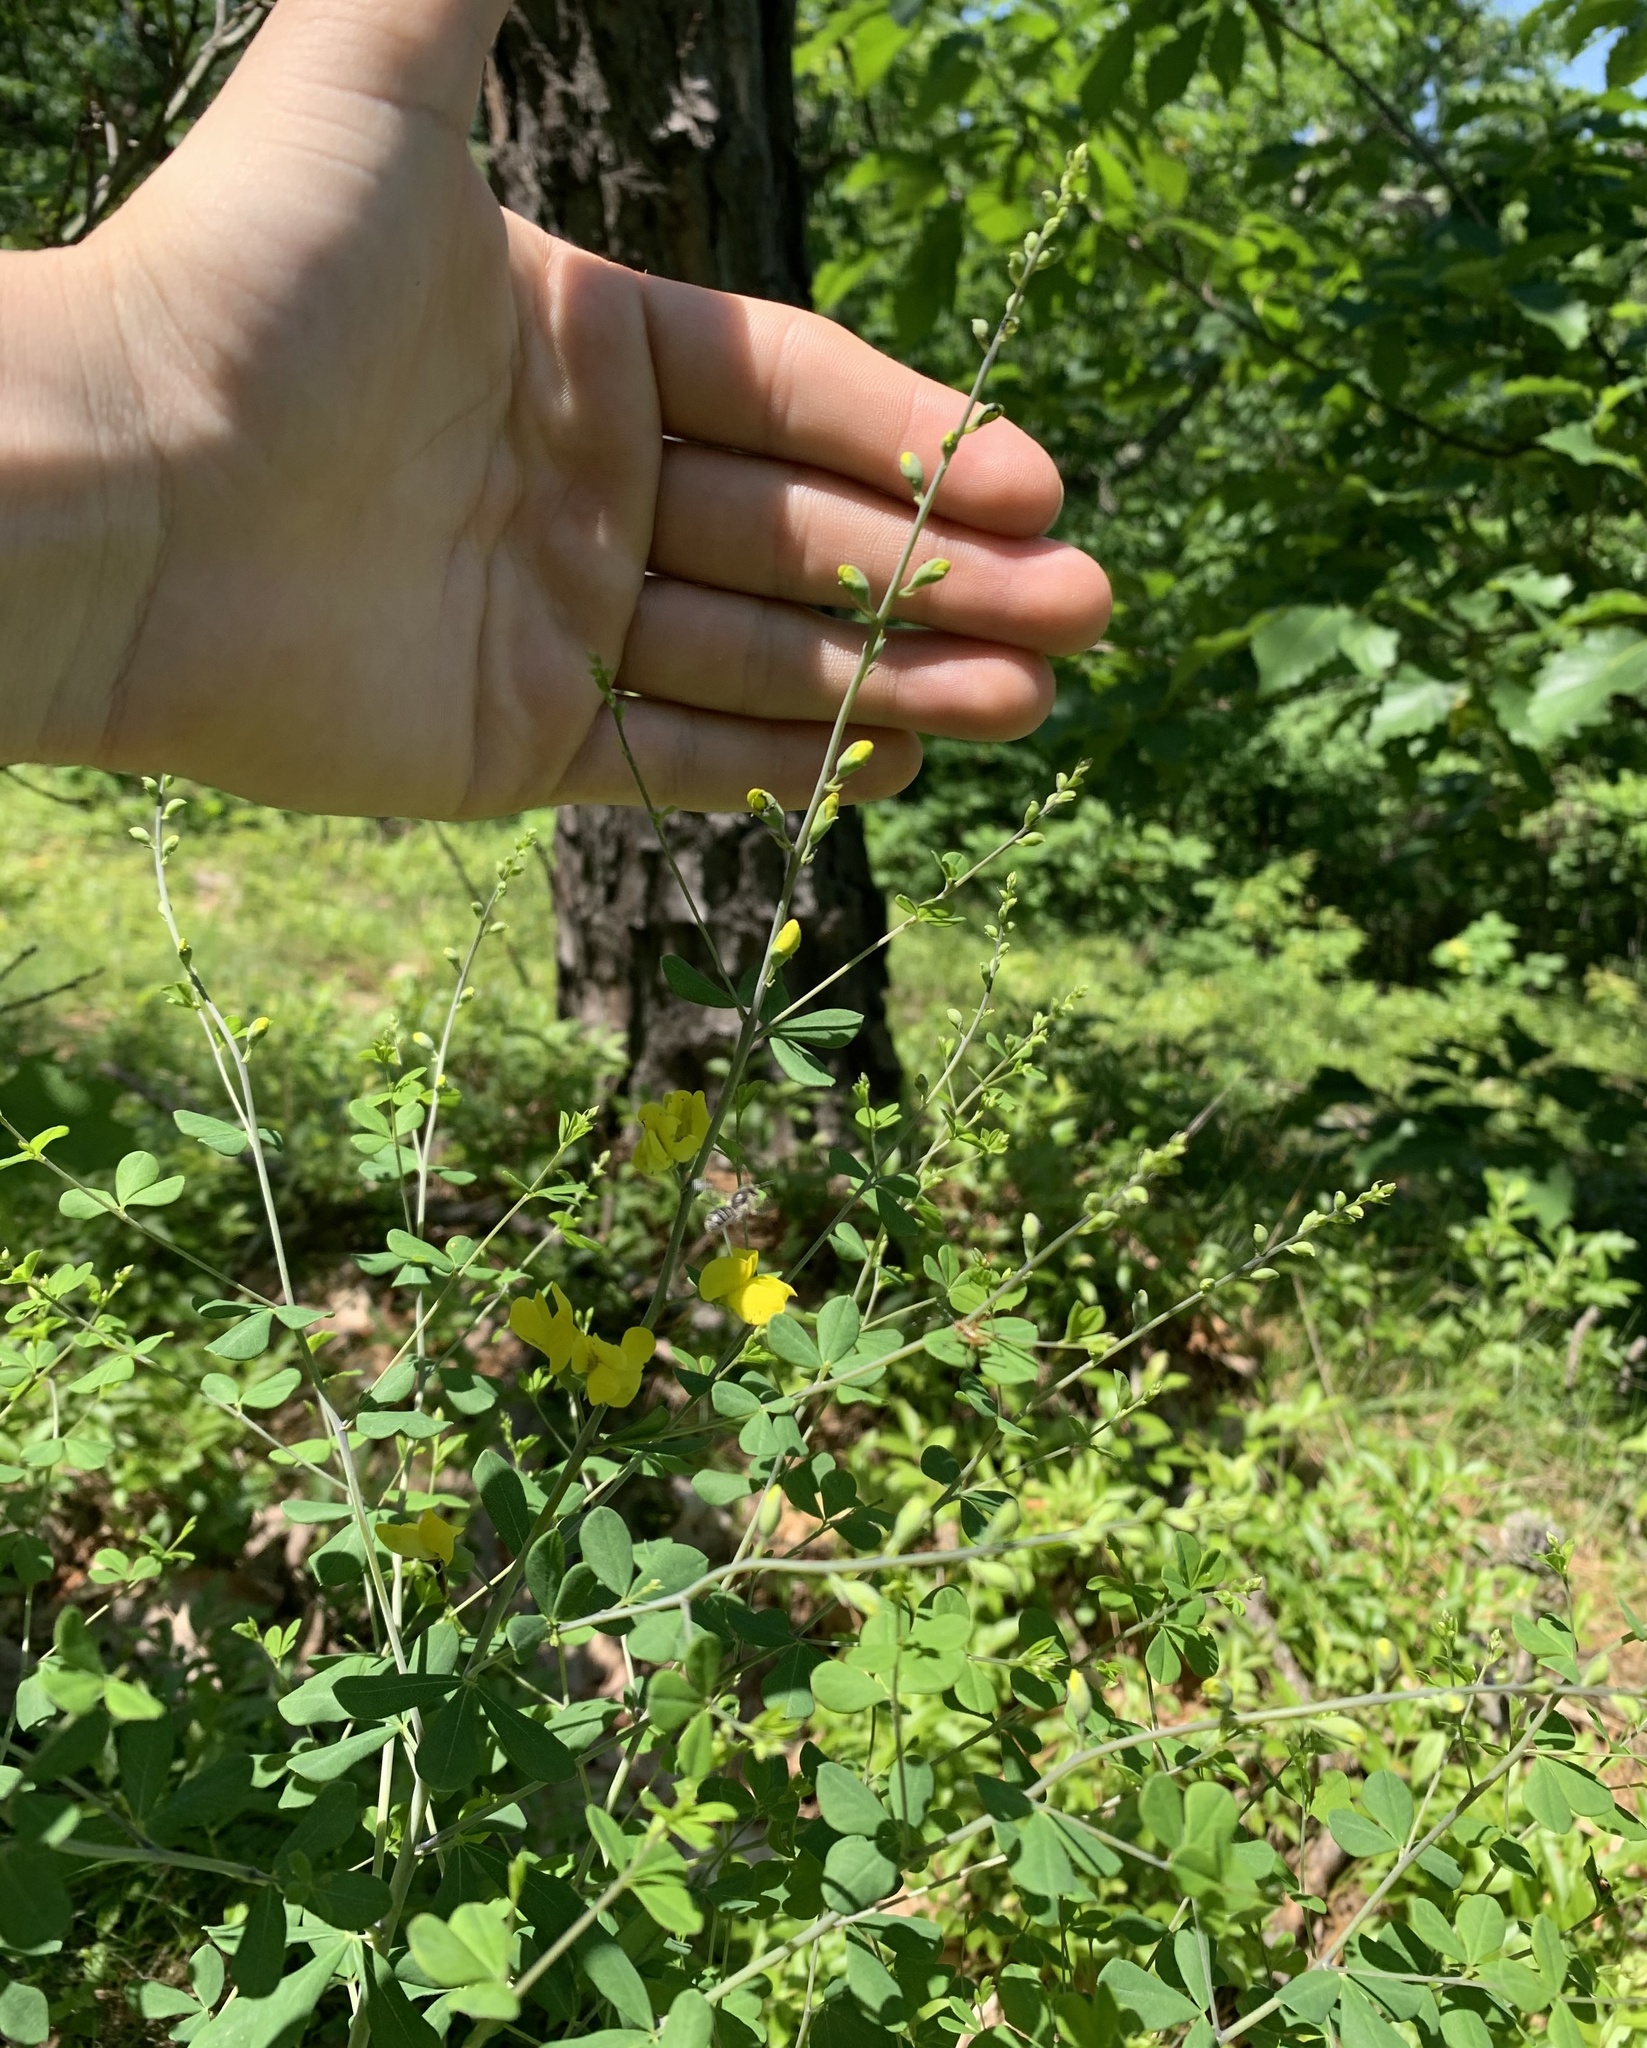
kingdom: Plantae
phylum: Tracheophyta
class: Magnoliopsida
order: Fabales
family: Fabaceae
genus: Baptisia
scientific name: Baptisia tinctoria
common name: Wild indigo
